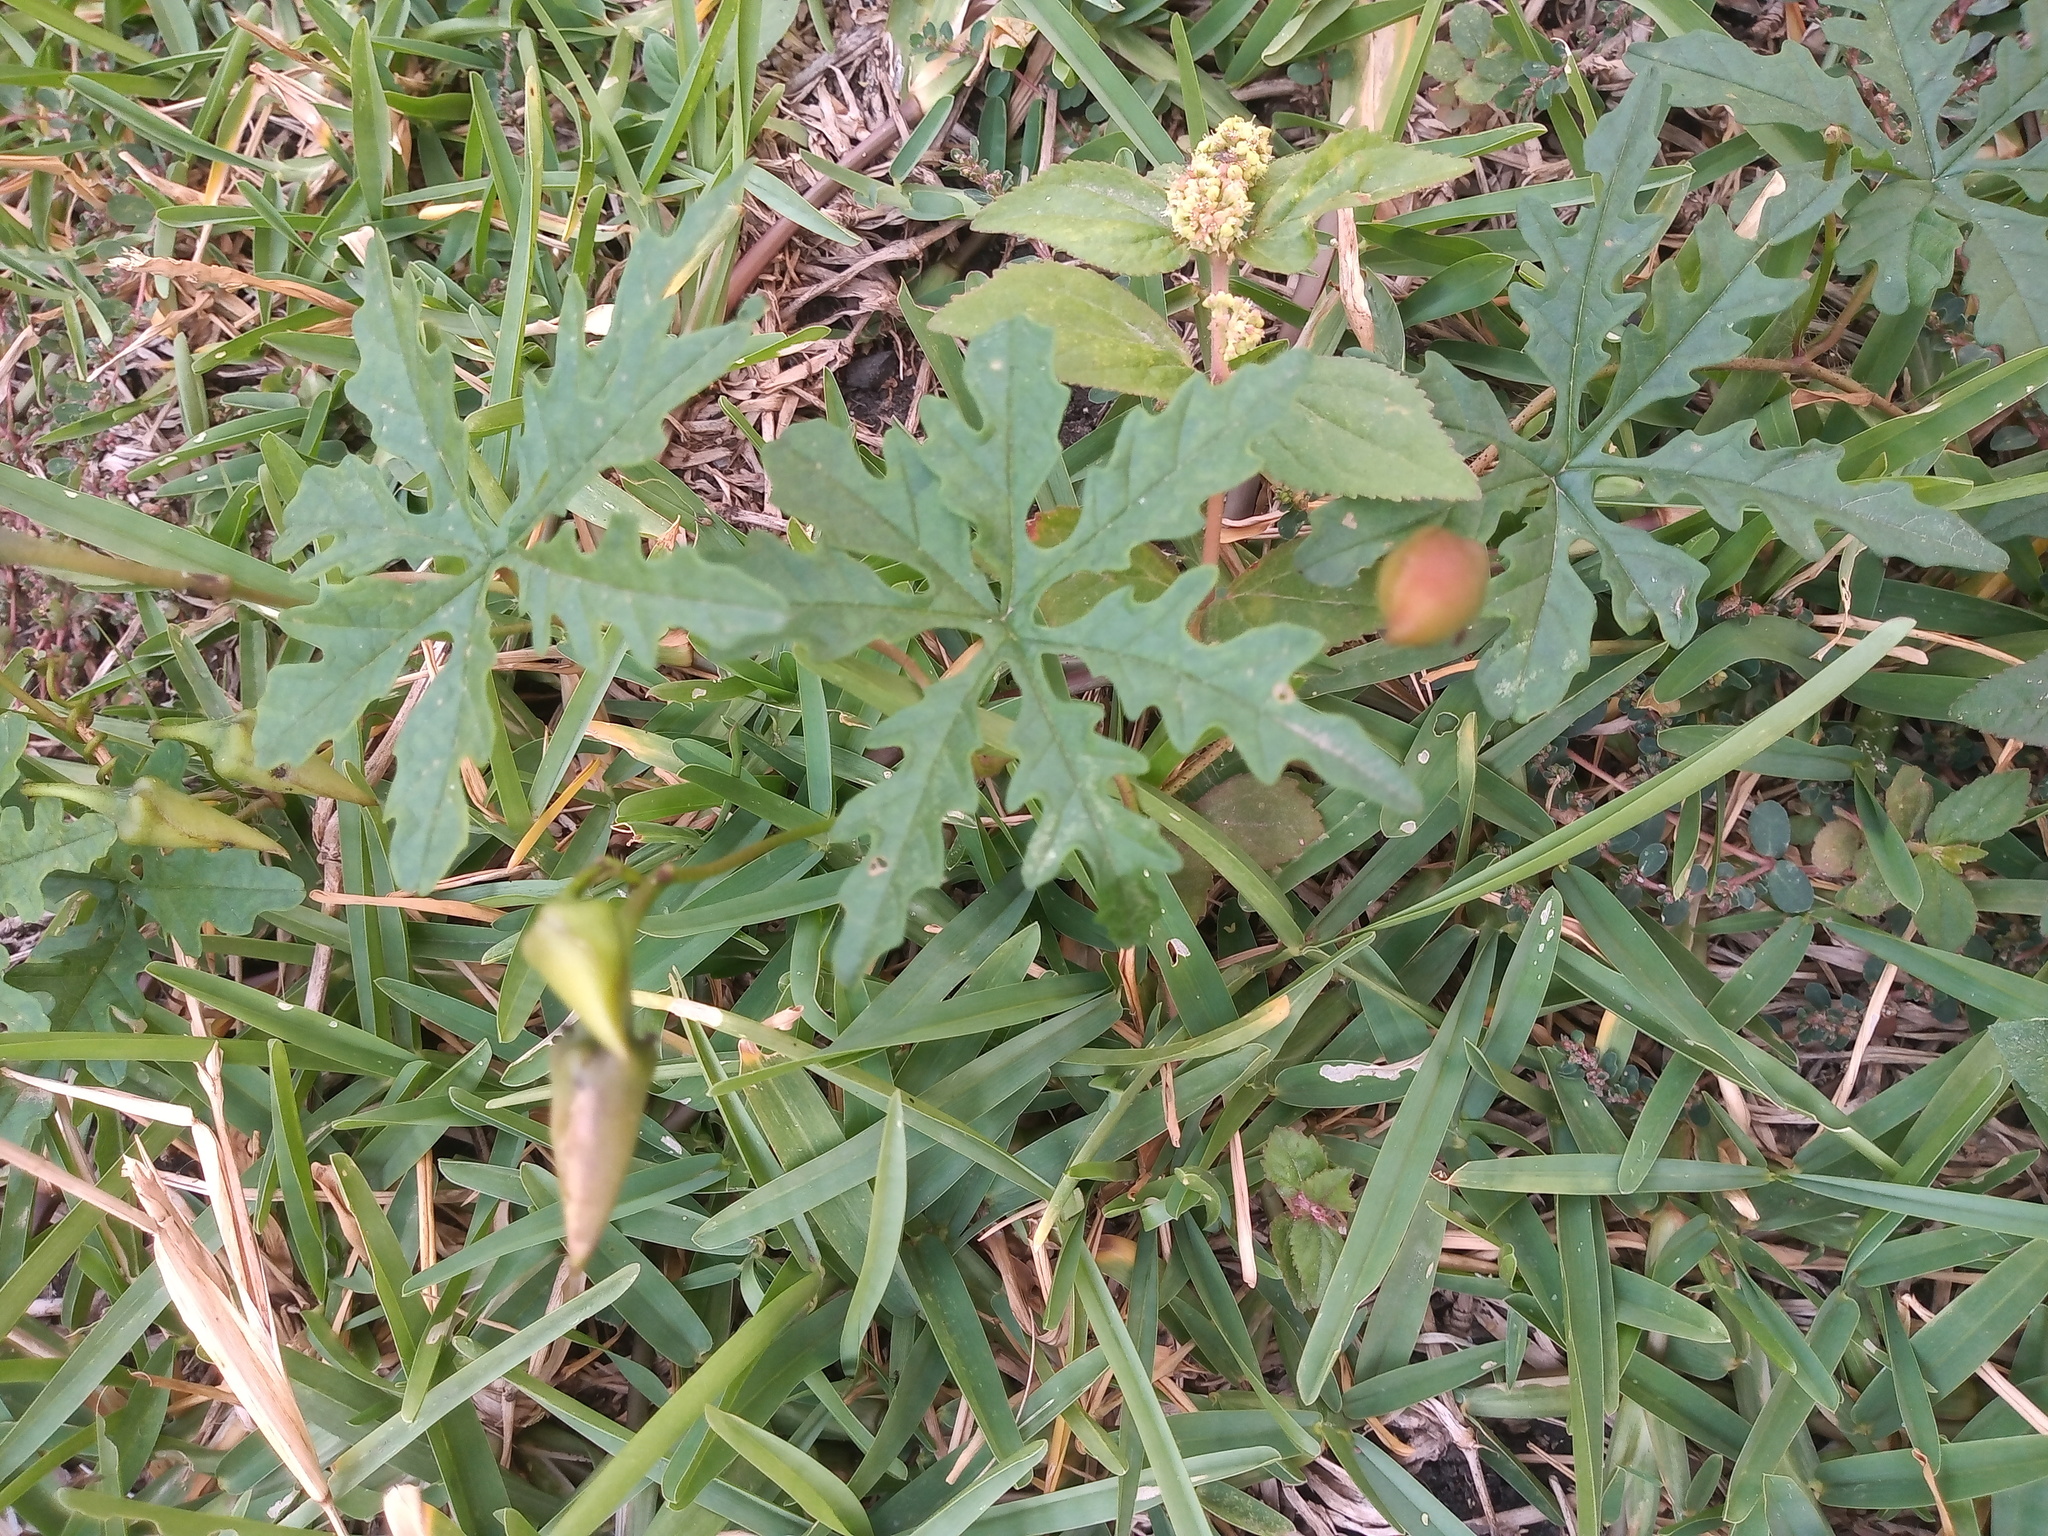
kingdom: Plantae
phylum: Tracheophyta
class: Magnoliopsida
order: Solanales
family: Convolvulaceae
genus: Distimake
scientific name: Distimake dissectus
